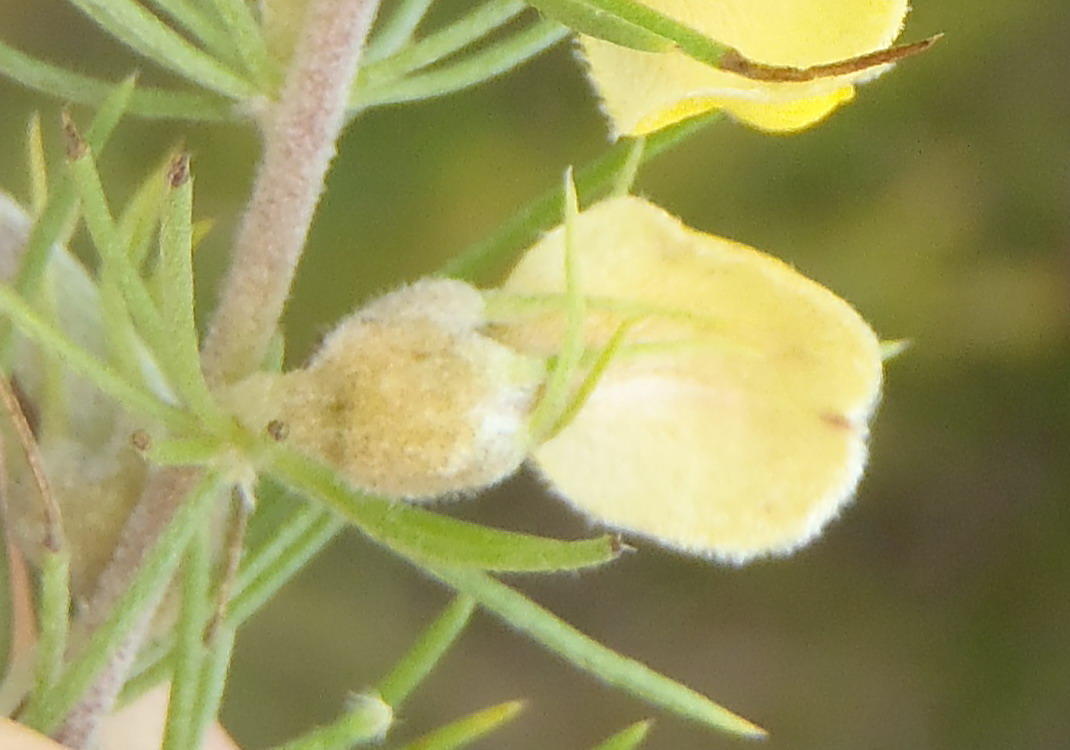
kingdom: Plantae
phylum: Tracheophyta
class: Magnoliopsida
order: Fabales
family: Fabaceae
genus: Aspalathus
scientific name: Aspalathus setacea
